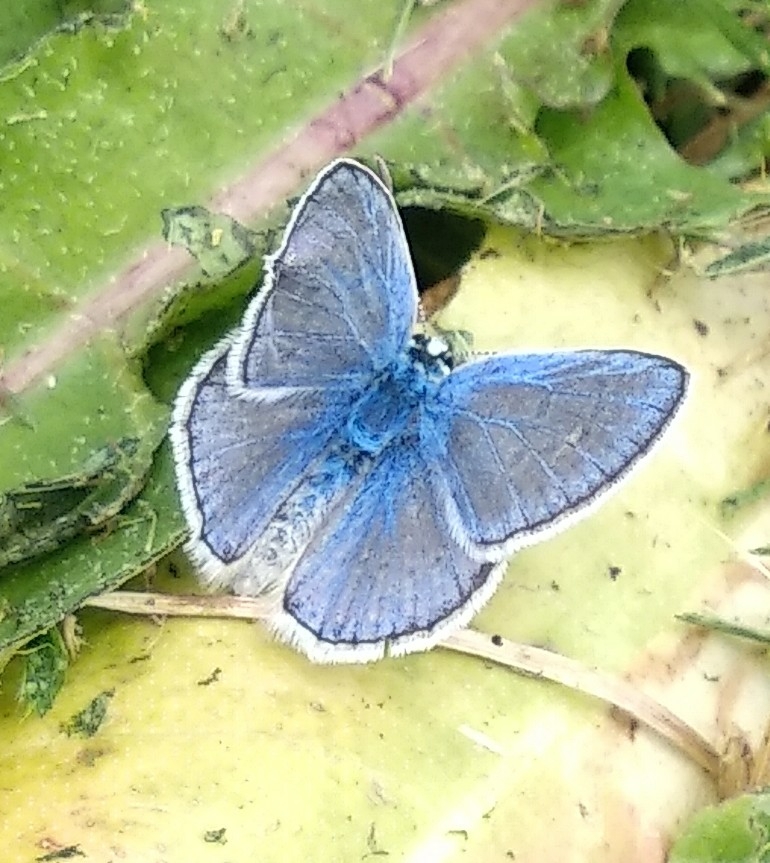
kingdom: Animalia
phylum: Arthropoda
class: Insecta
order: Lepidoptera
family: Lycaenidae
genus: Polyommatus
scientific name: Polyommatus icarus
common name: Common blue
